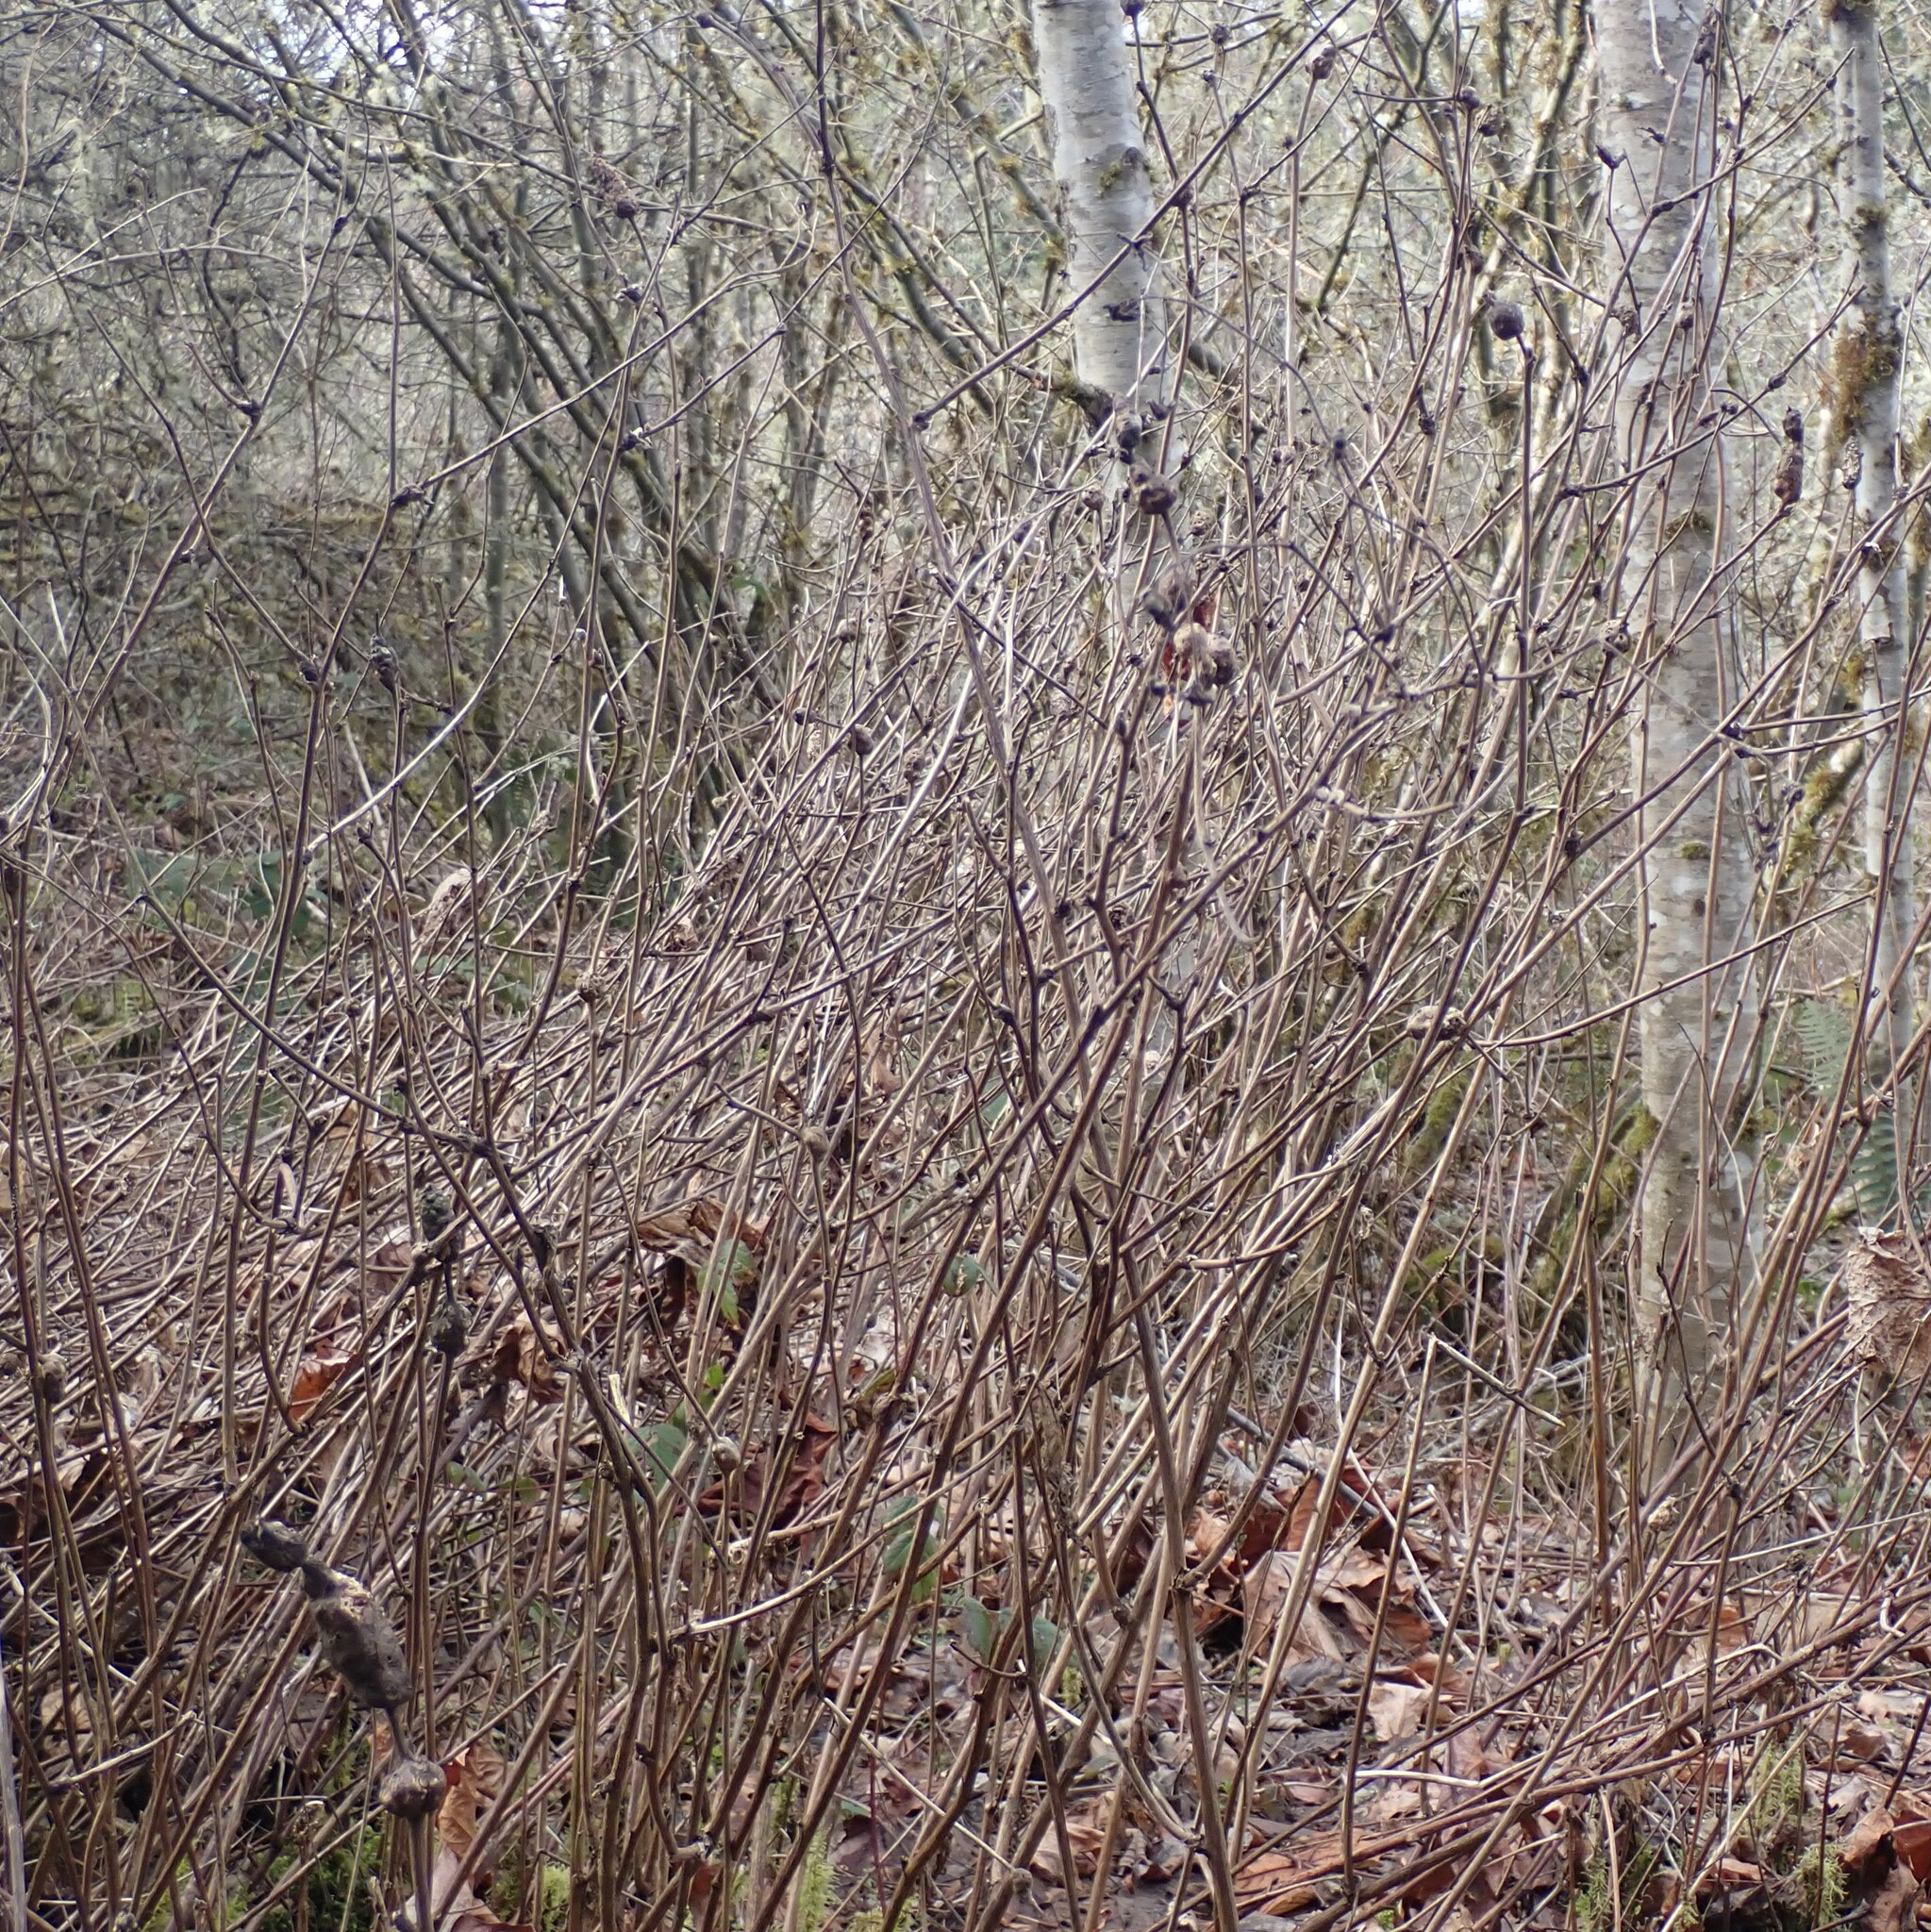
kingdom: Animalia
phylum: Arthropoda
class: Insecta
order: Hymenoptera
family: Cynipidae
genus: Diastrophus
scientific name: Diastrophus
